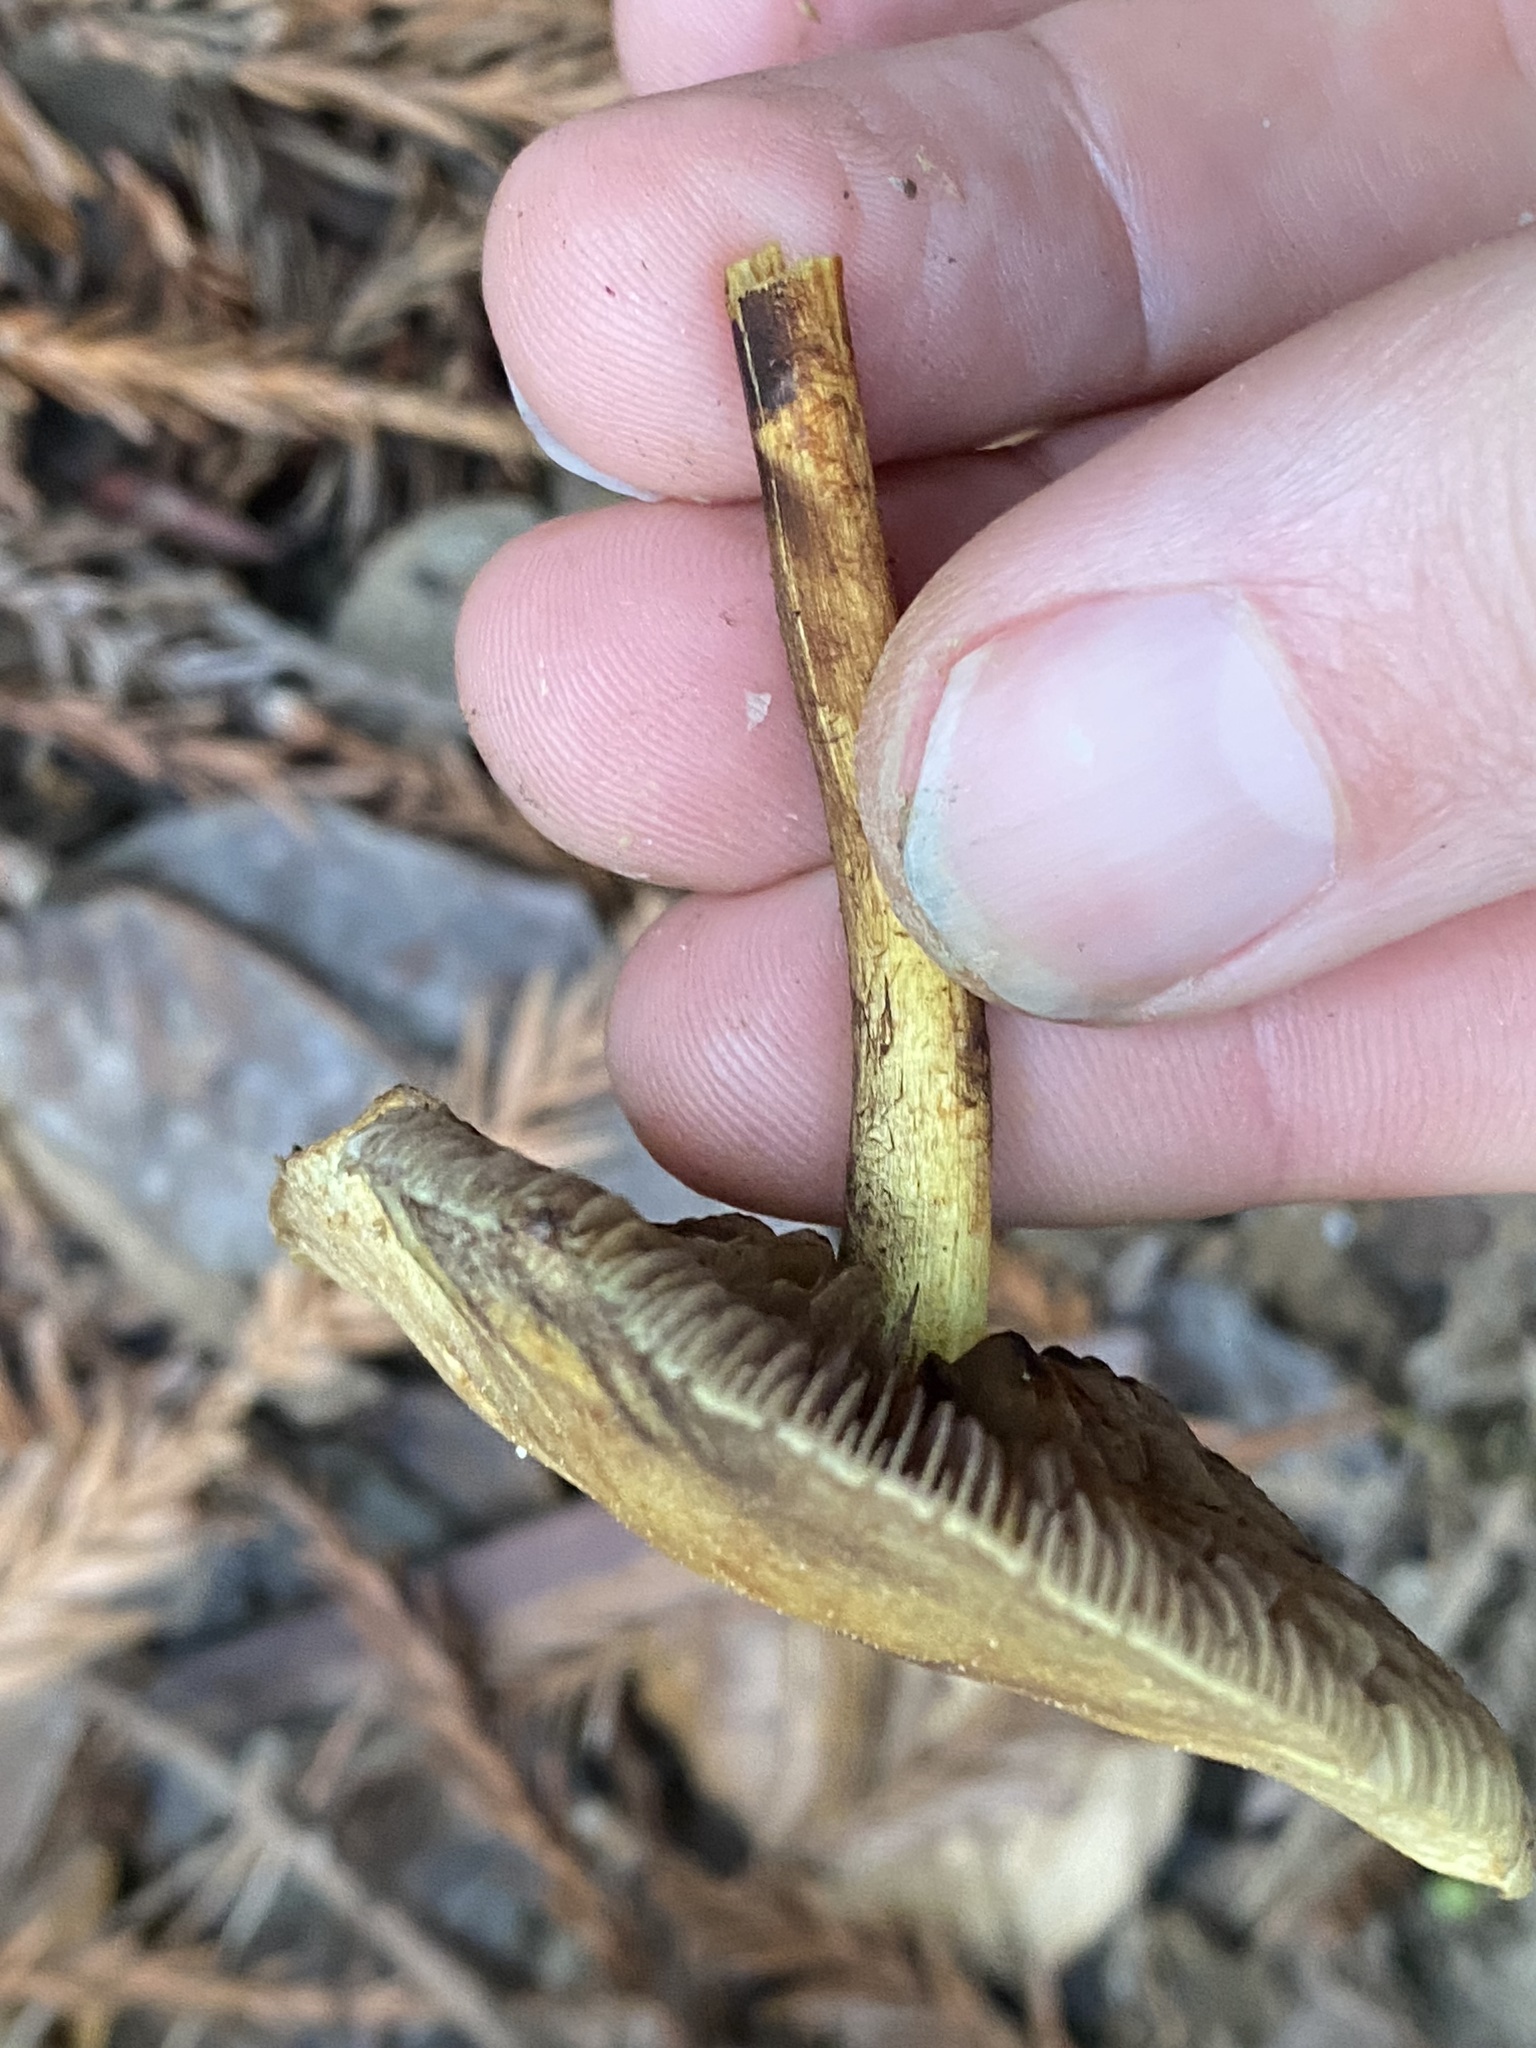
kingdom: Fungi
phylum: Basidiomycota
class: Agaricomycetes
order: Agaricales
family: Strophariaceae
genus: Hypholoma
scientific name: Hypholoma fasciculare
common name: Sulphur tuft
